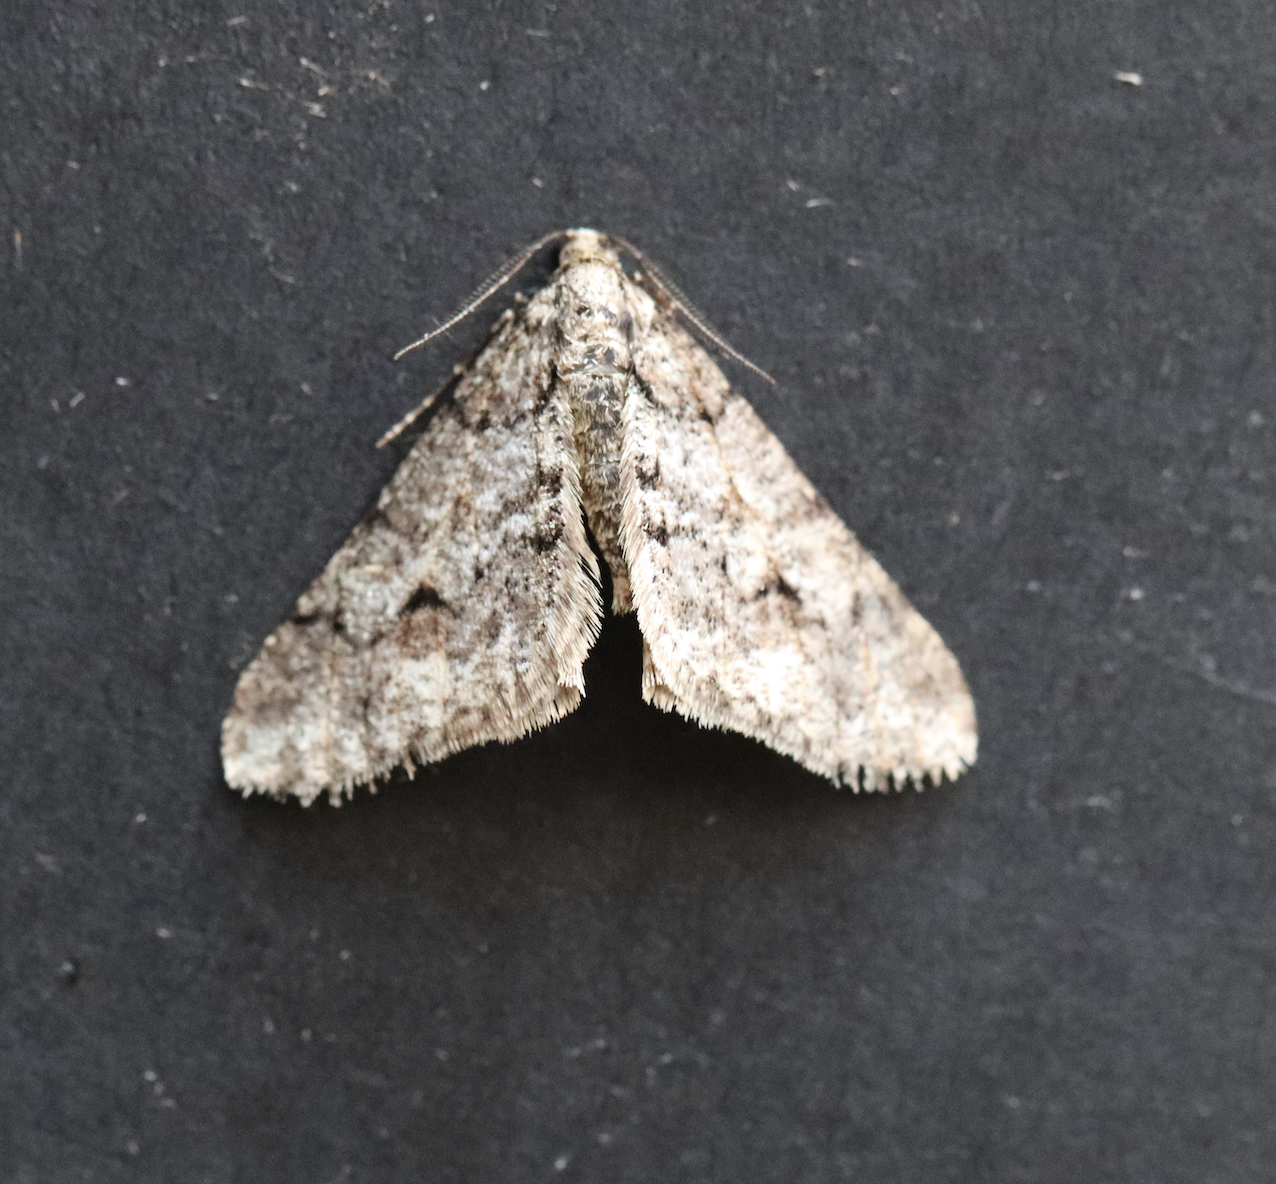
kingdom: Animalia
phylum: Arthropoda
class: Insecta
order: Lepidoptera
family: Geometridae
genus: Agriopis
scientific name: Agriopis leucophaearia
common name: Spring usher
